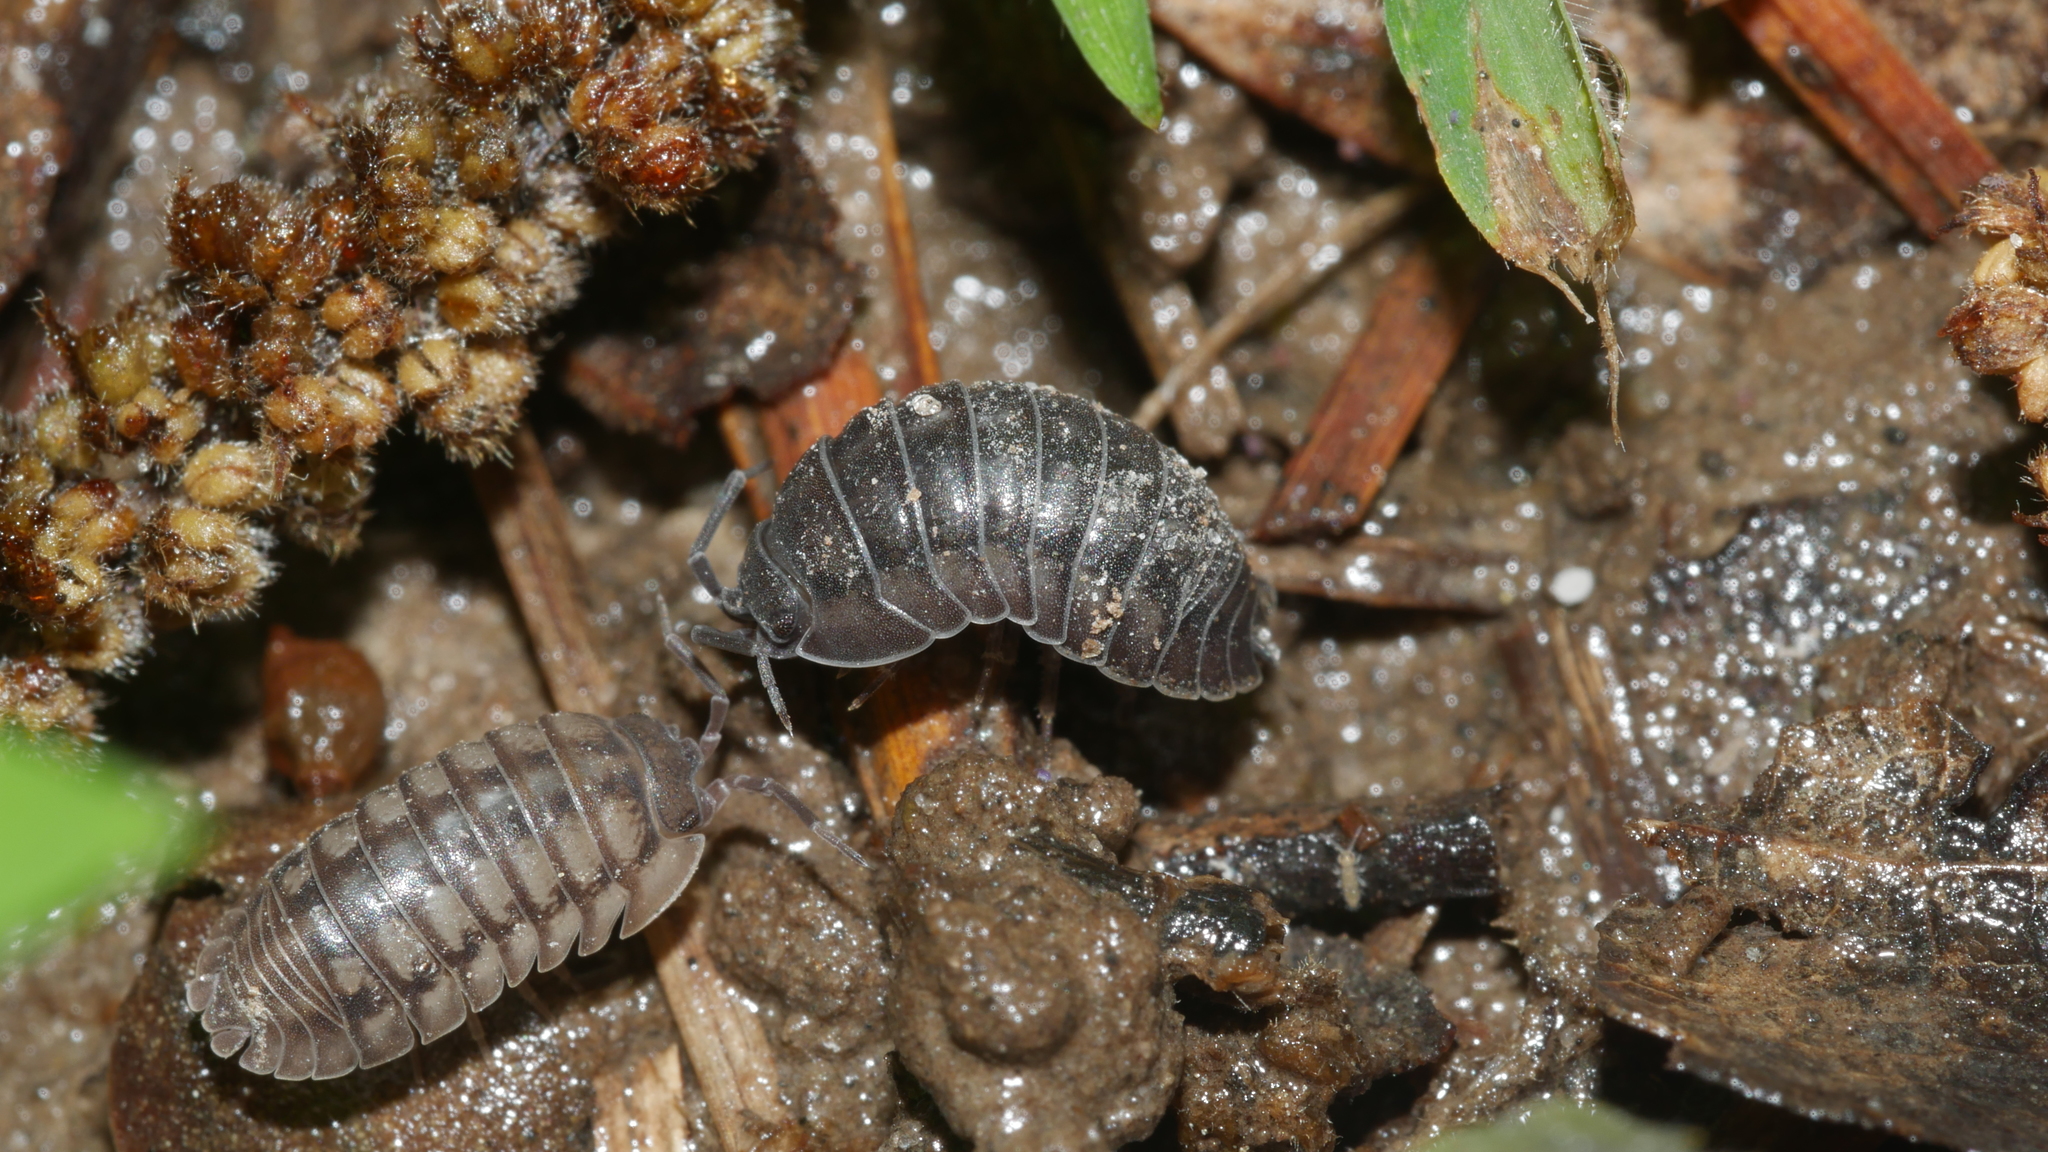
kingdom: Animalia
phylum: Arthropoda
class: Malacostraca
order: Isopoda
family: Armadillidiidae
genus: Armadillidium
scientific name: Armadillidium nasatum
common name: Isopod
